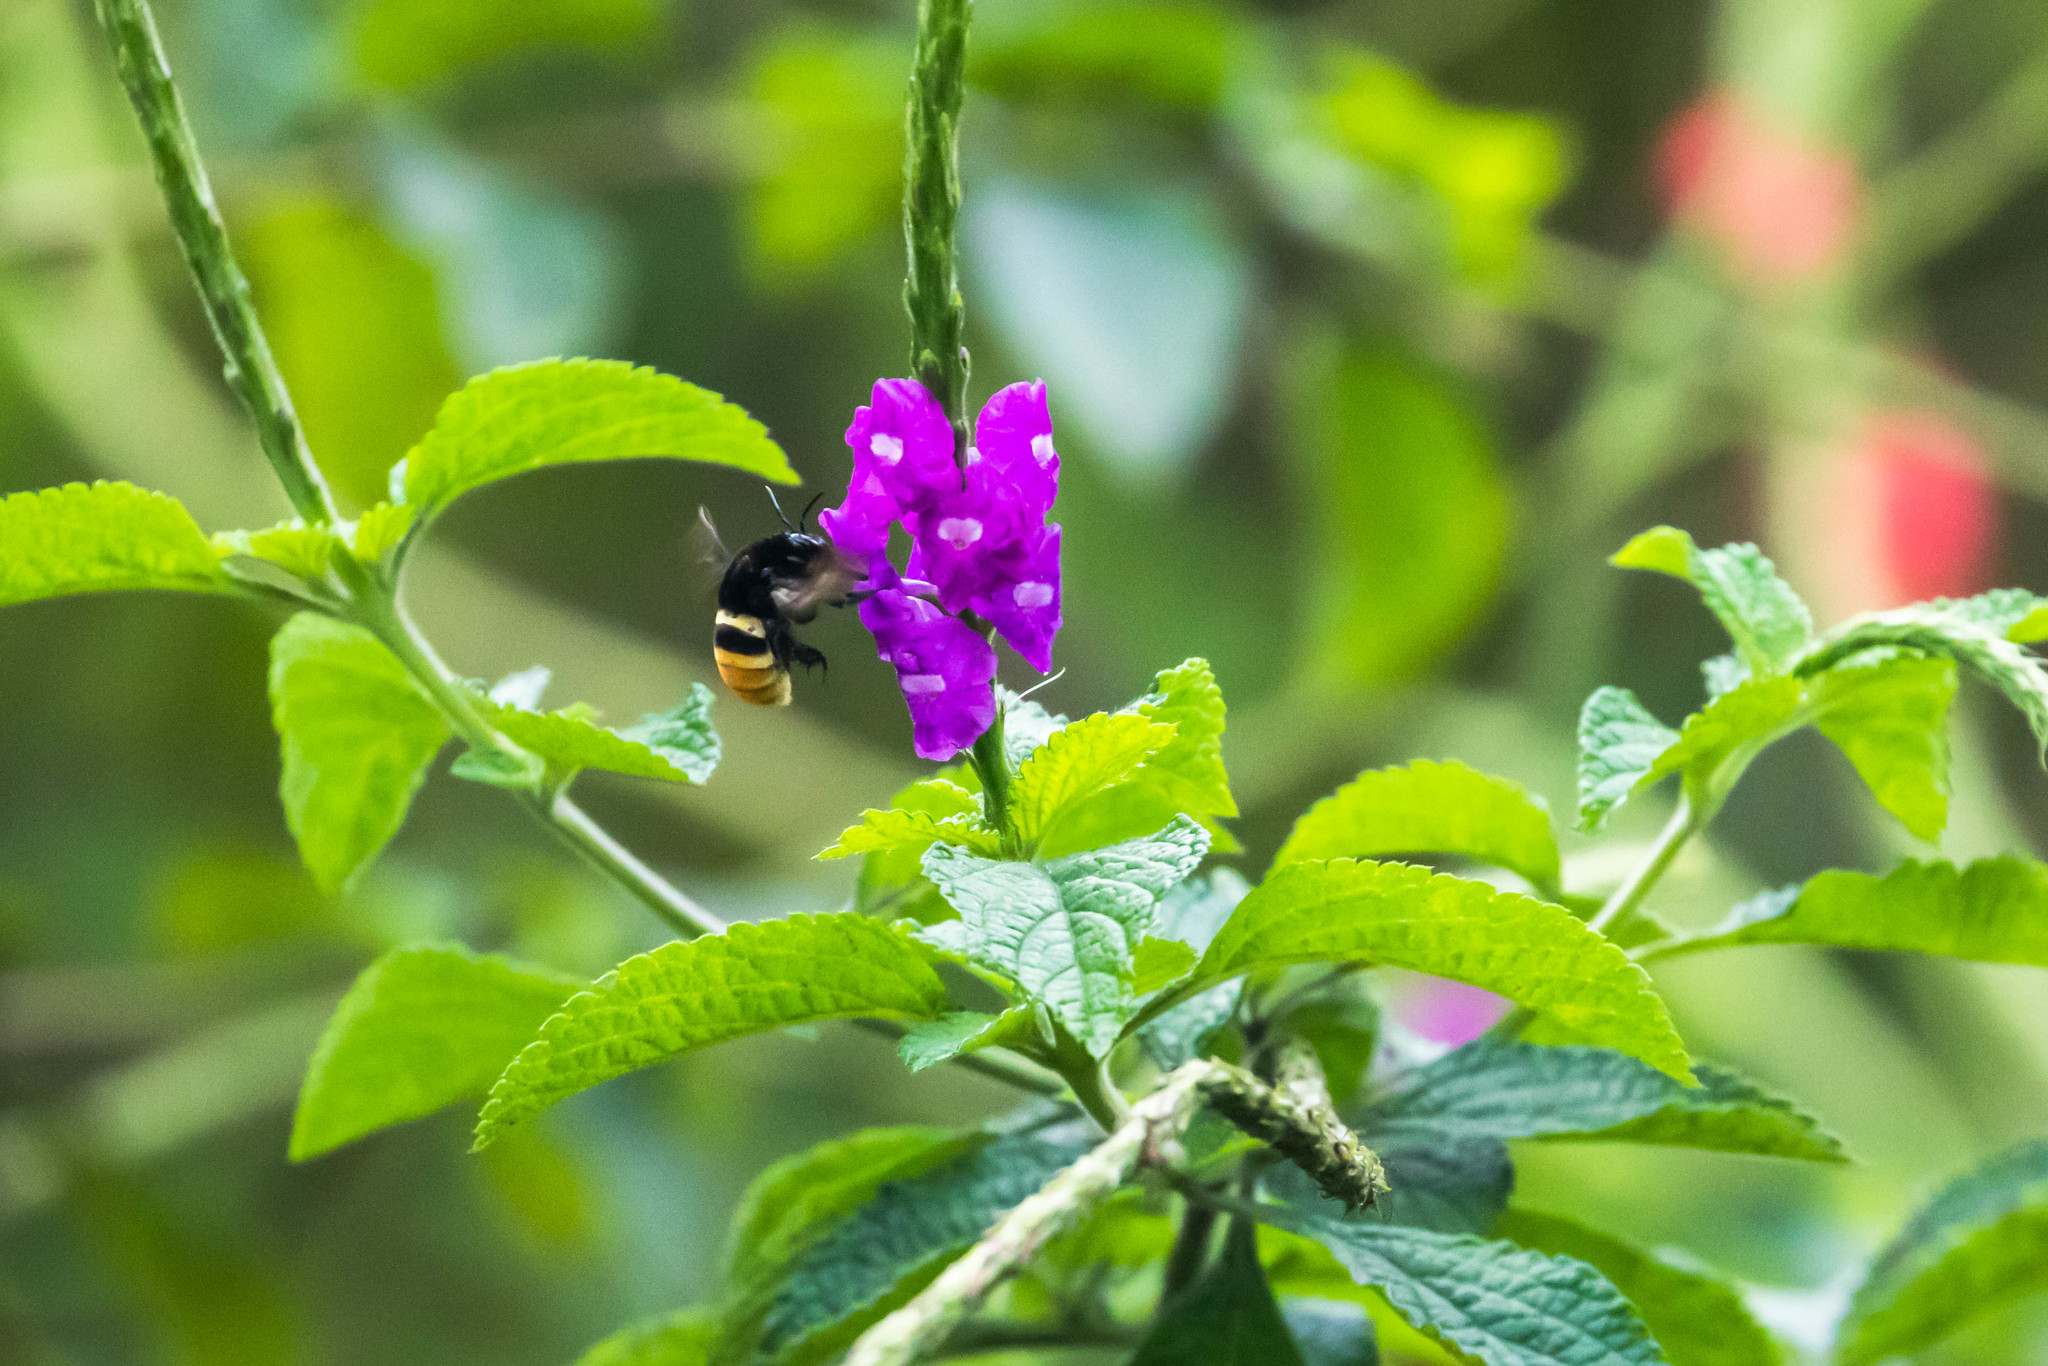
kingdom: Animalia
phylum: Arthropoda
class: Insecta
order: Hymenoptera
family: Apidae
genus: Eulaema
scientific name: Eulaema cingulata
